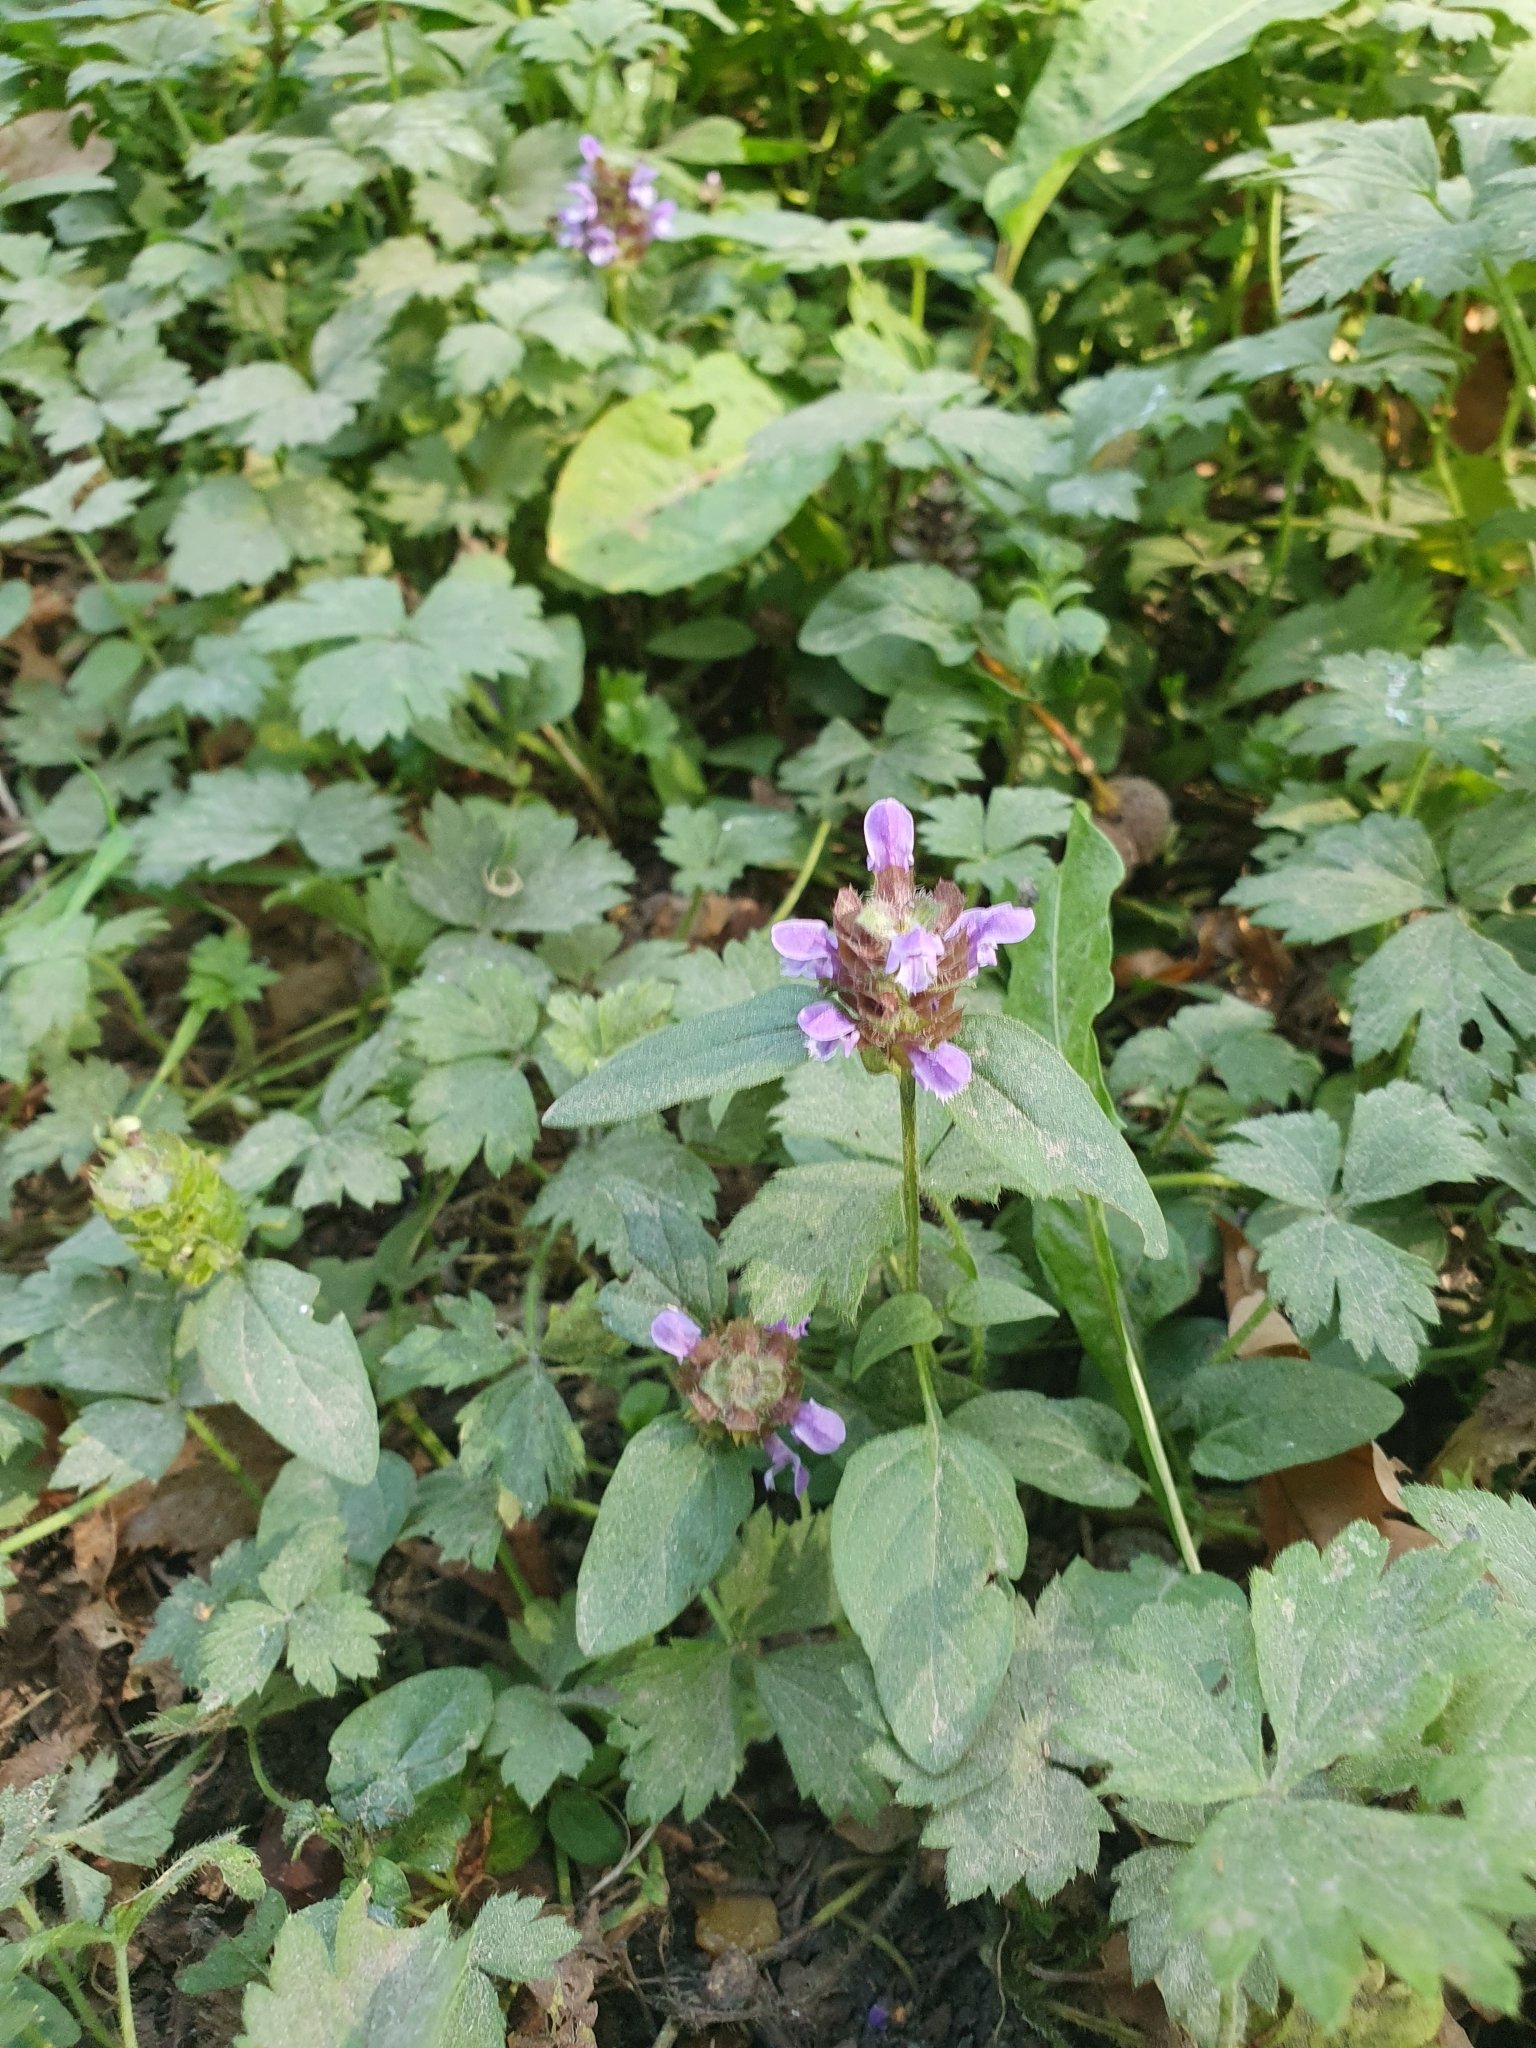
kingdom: Plantae
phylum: Tracheophyta
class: Magnoliopsida
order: Lamiales
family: Lamiaceae
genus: Prunella
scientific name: Prunella vulgaris
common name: Heal-all
